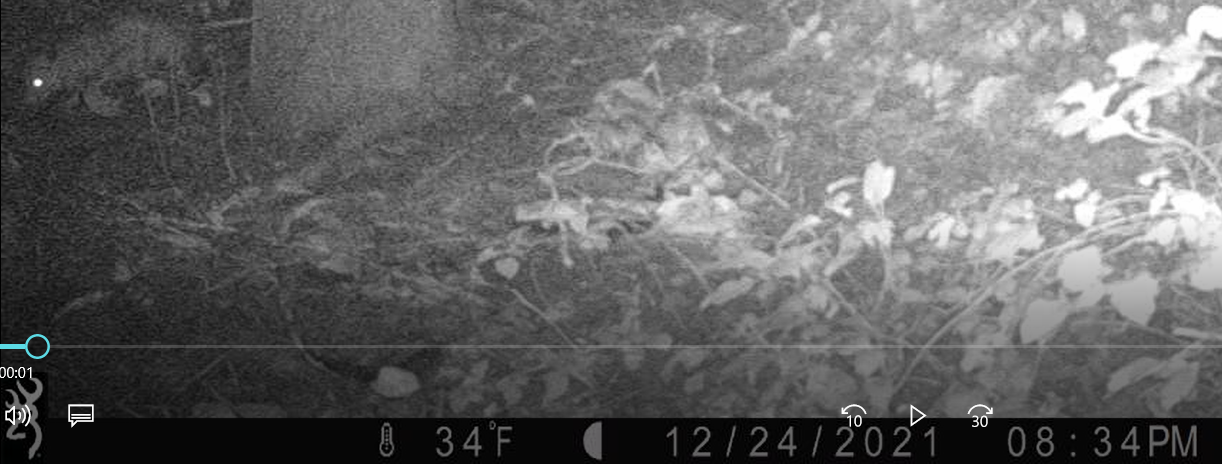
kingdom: Animalia
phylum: Chordata
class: Mammalia
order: Didelphimorphia
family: Didelphidae
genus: Didelphis
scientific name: Didelphis virginiana
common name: Virginia opossum
